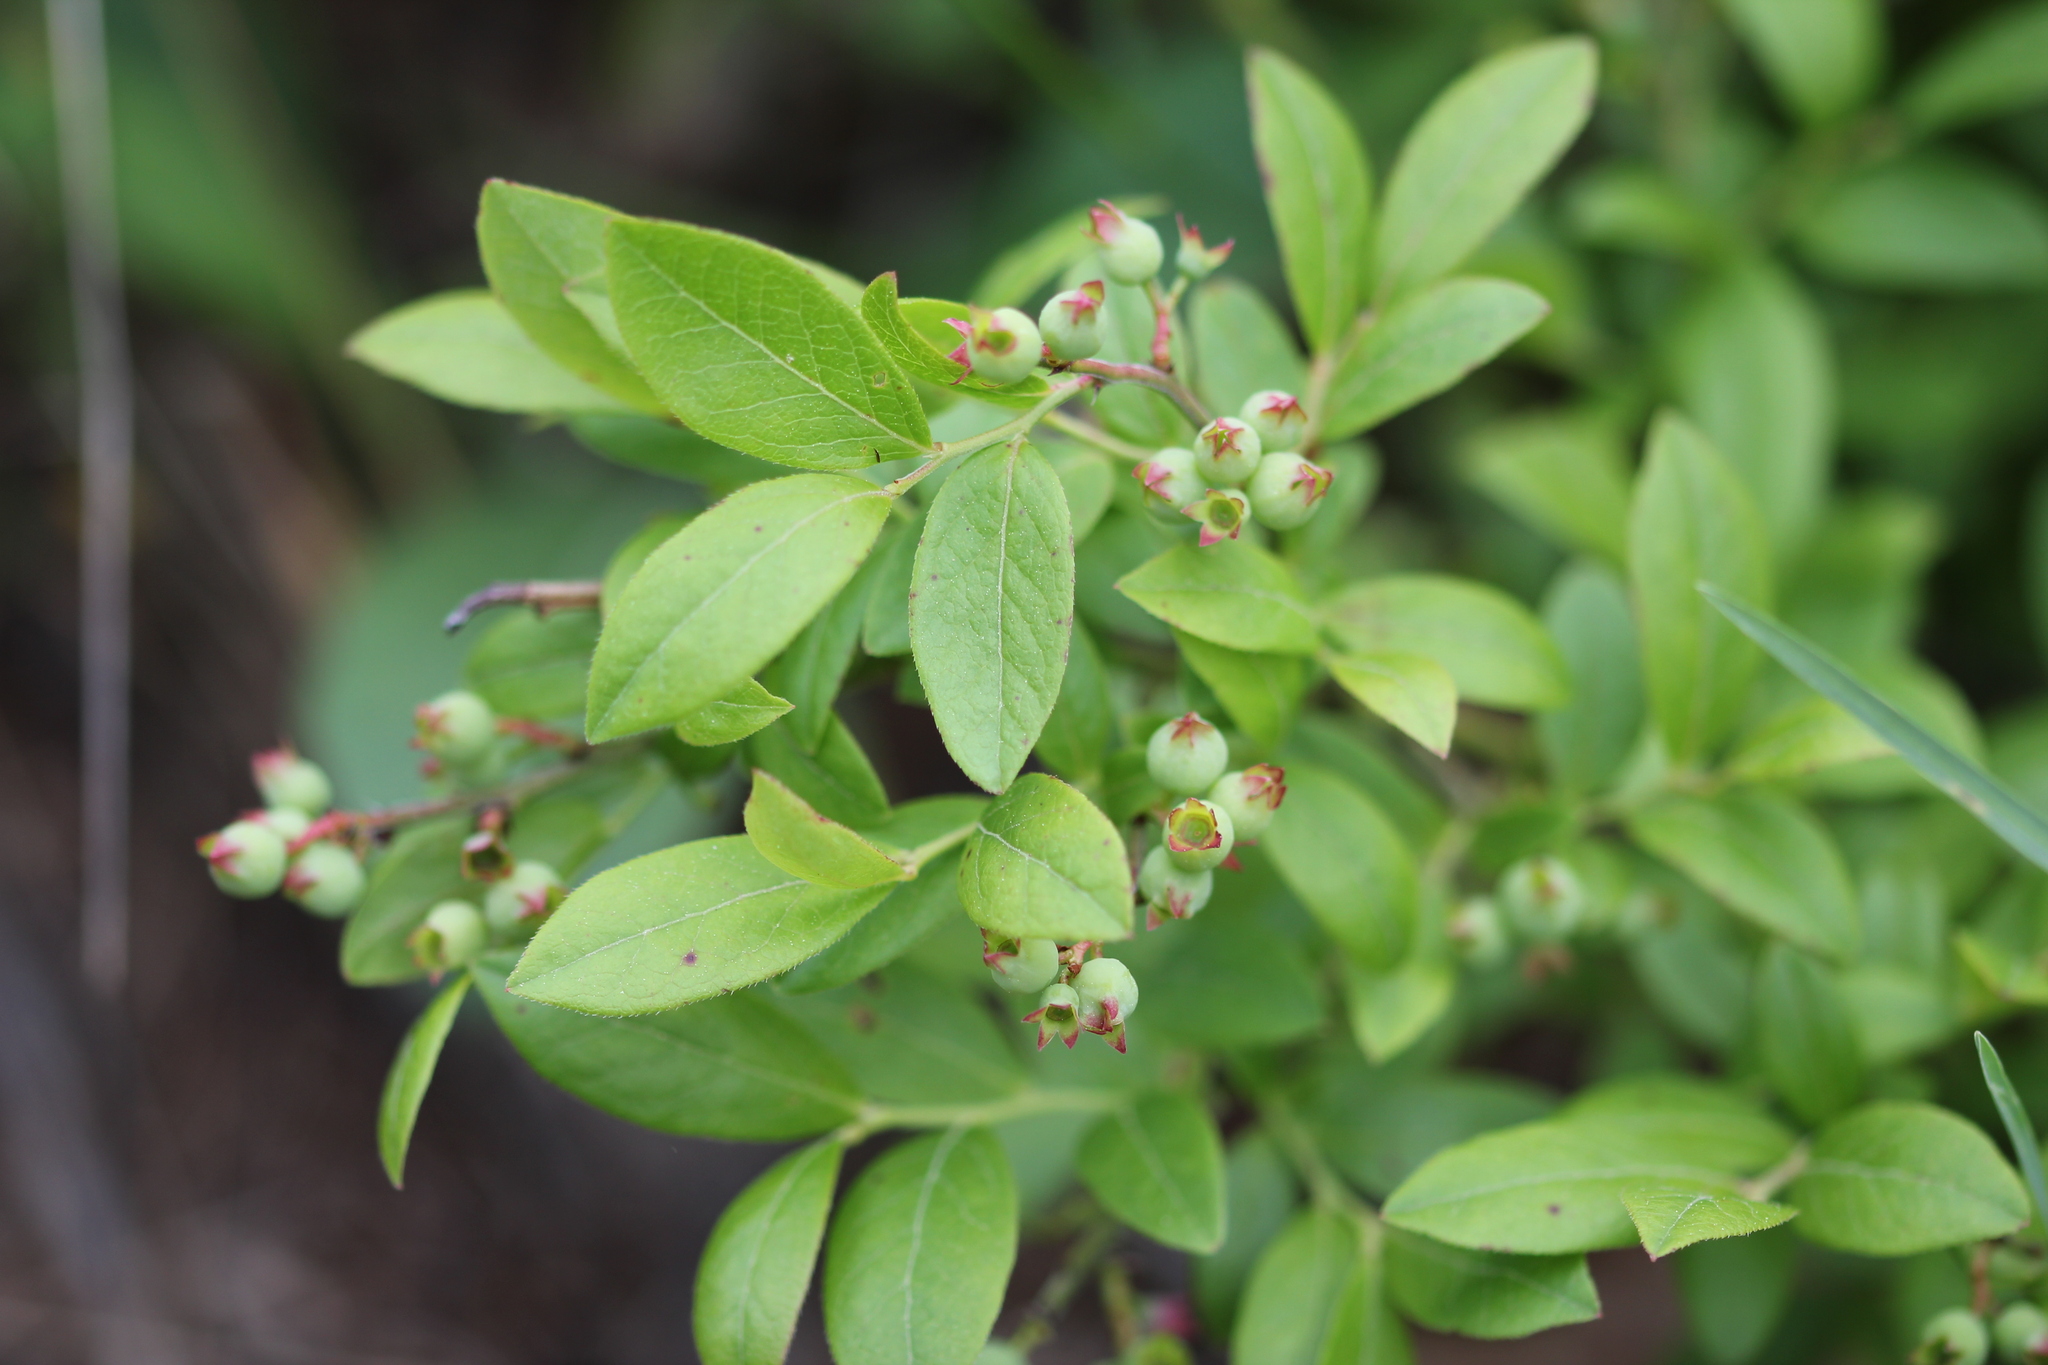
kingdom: Plantae
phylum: Tracheophyta
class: Magnoliopsida
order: Ericales
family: Ericaceae
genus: Vaccinium
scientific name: Vaccinium angustifolium
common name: Early lowbush blueberry
